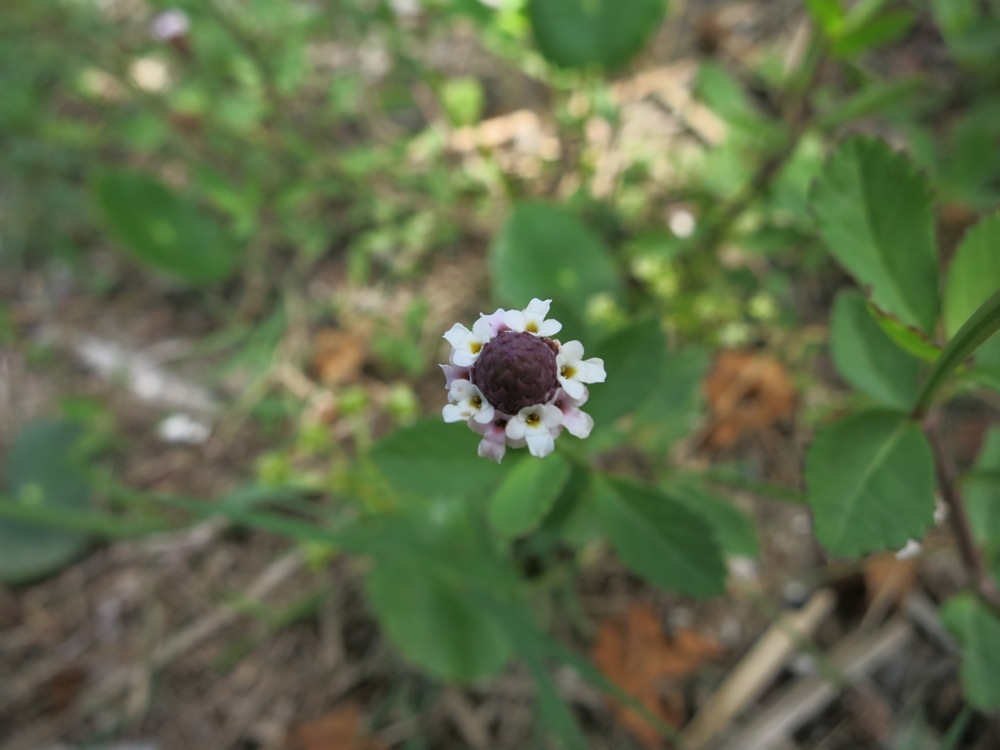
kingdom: Plantae
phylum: Tracheophyta
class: Magnoliopsida
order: Lamiales
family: Verbenaceae
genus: Phyla
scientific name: Phyla nodiflora
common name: Frogfruit
